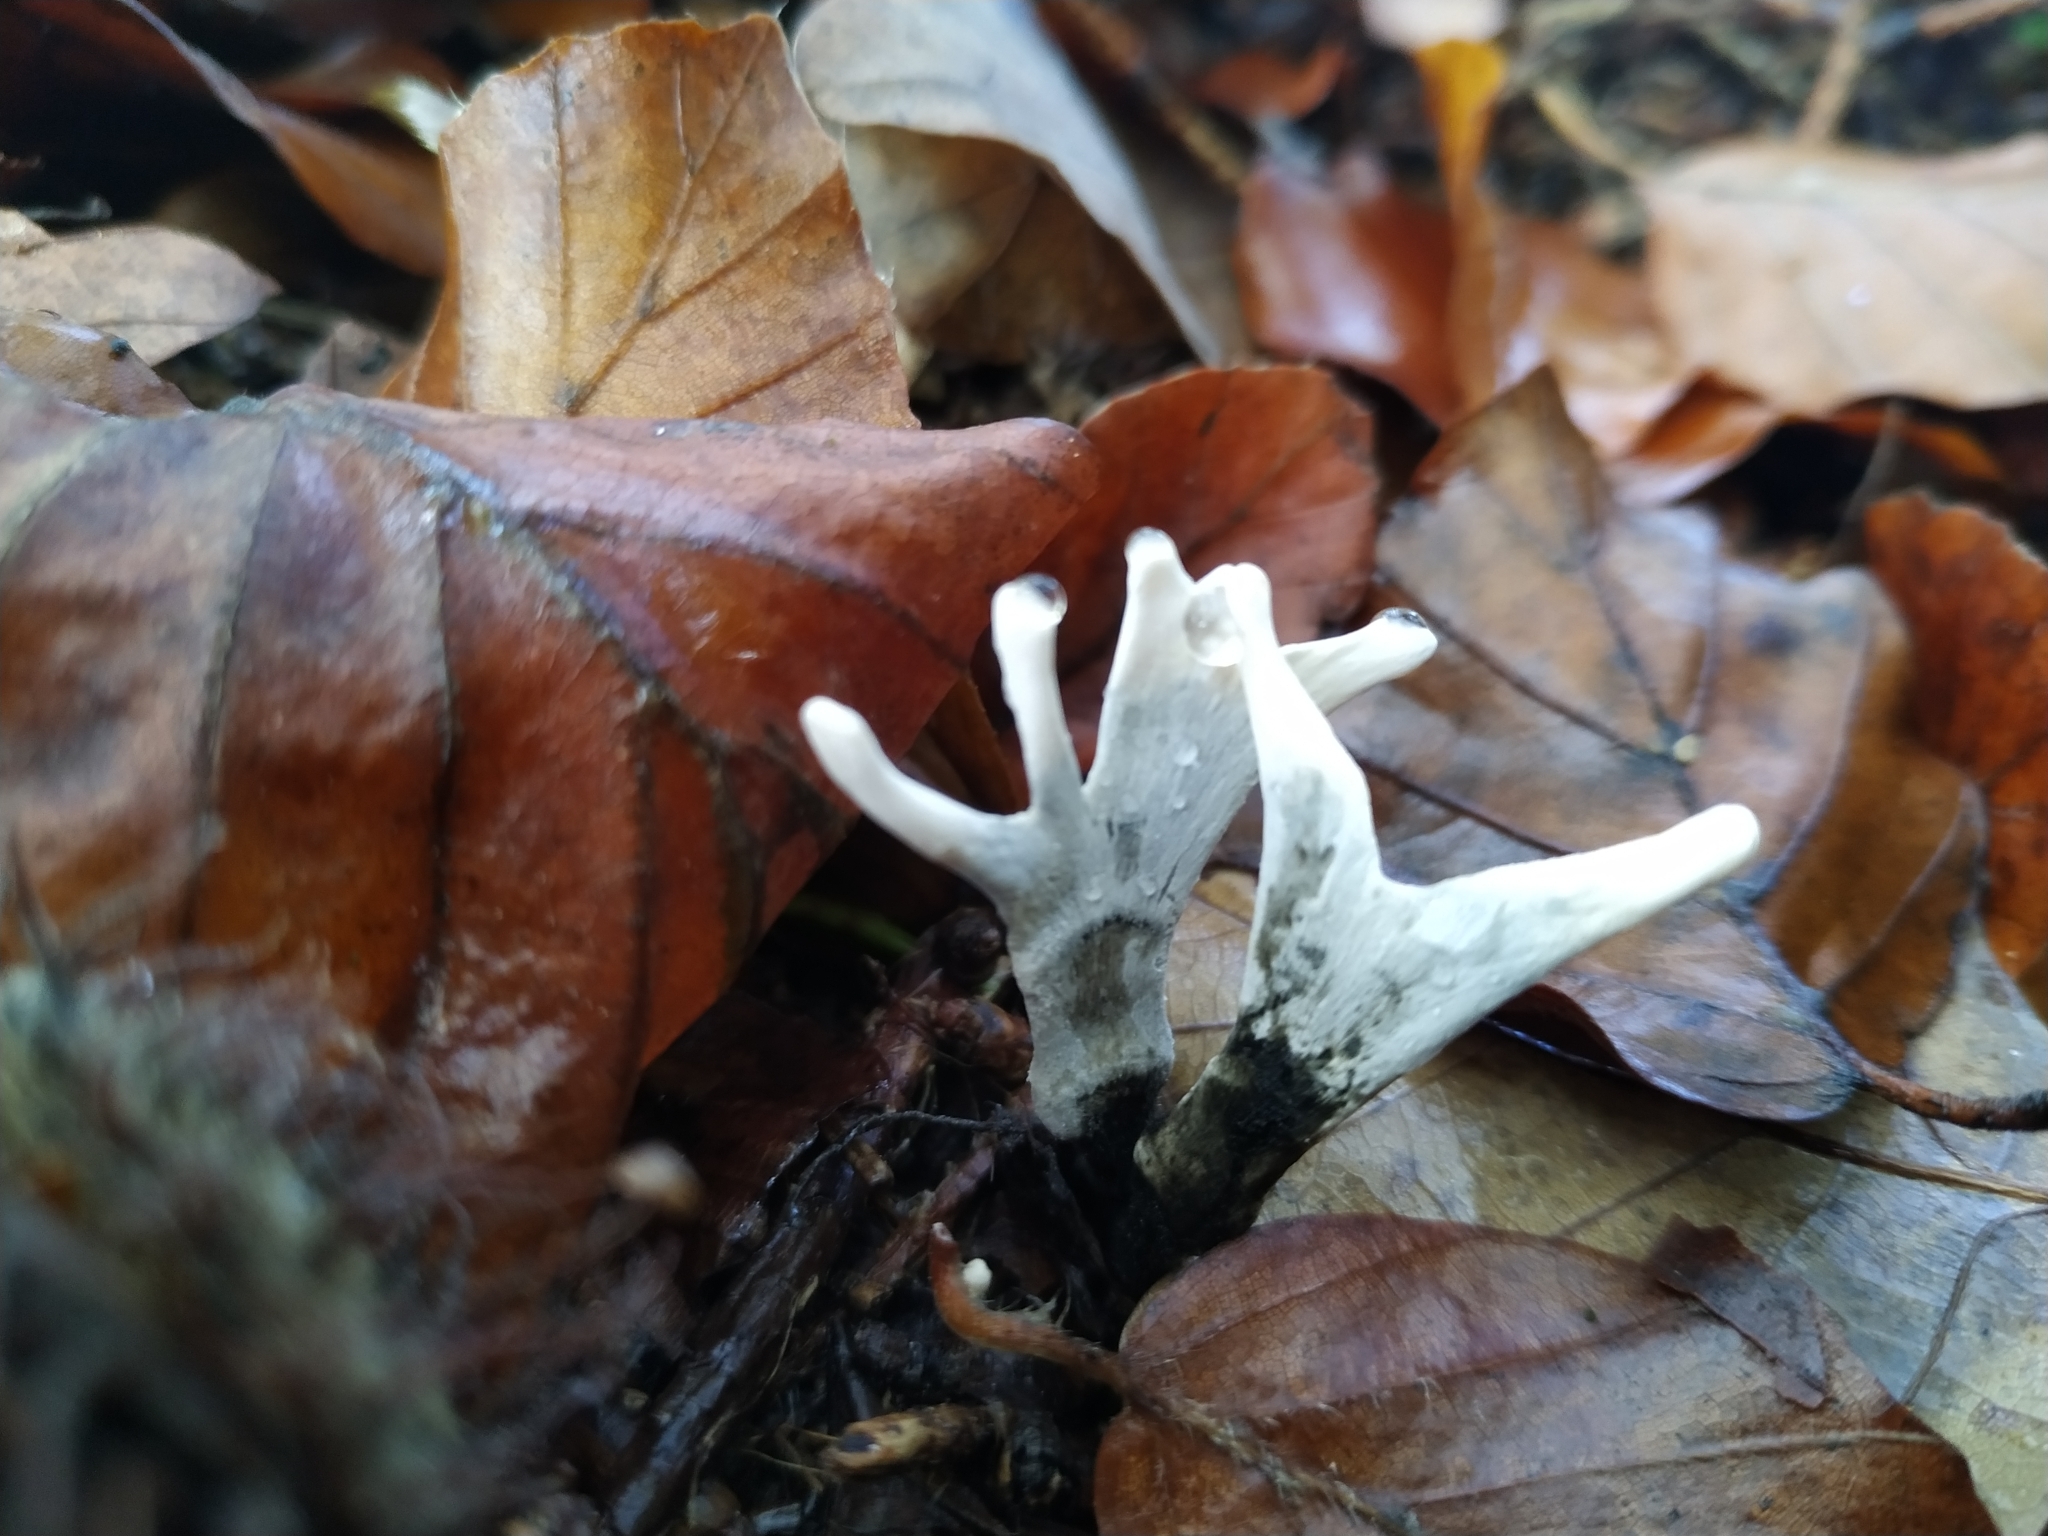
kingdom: Fungi
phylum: Ascomycota
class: Sordariomycetes
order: Xylariales
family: Xylariaceae
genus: Xylaria
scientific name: Xylaria hypoxylon
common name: Candle-snuff fungus
